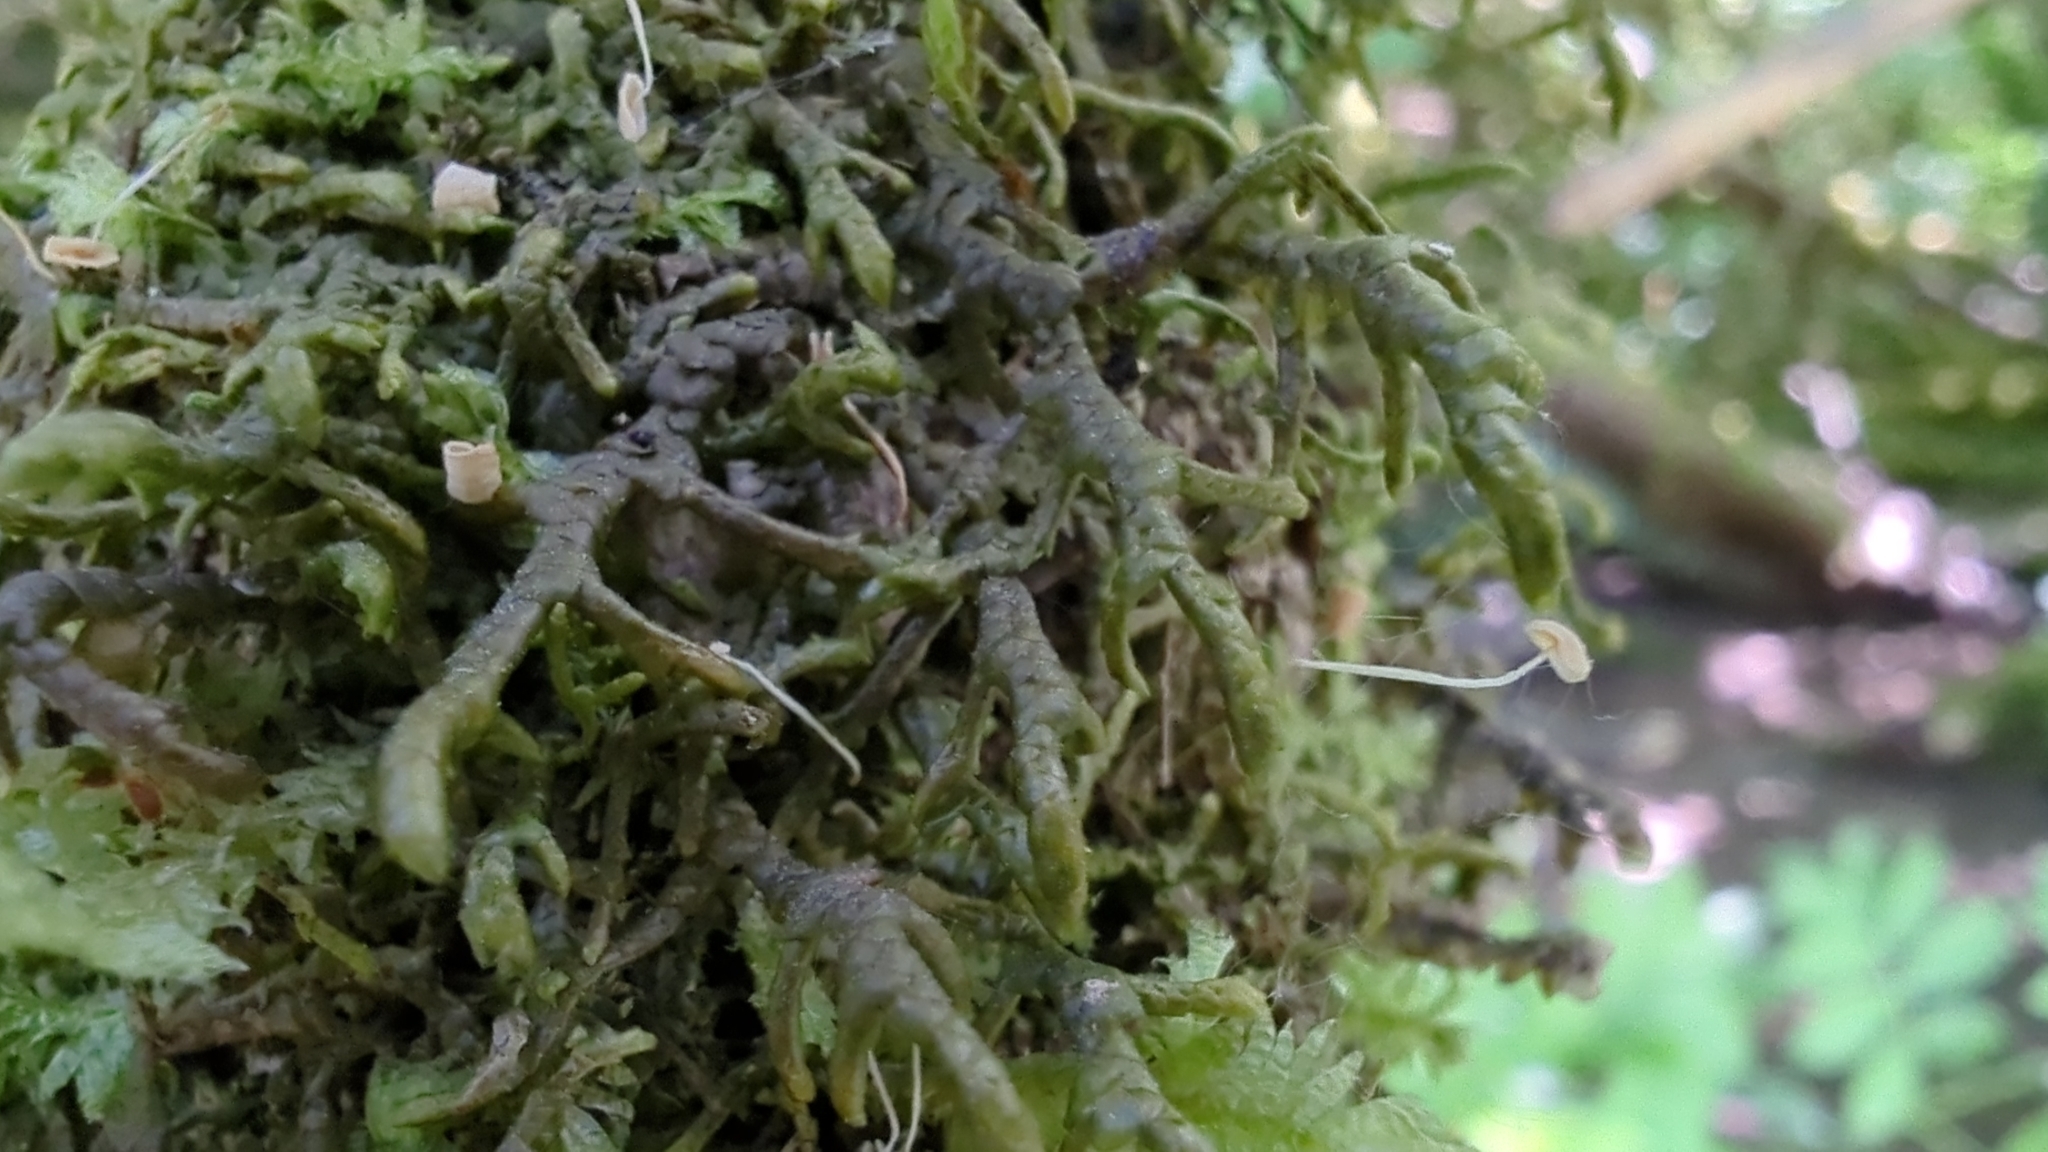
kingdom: Plantae
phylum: Marchantiophyta
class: Jungermanniopsida
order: Porellales
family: Porellaceae
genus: Porella
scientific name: Porella navicularis
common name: Tree ruffle liverwort
